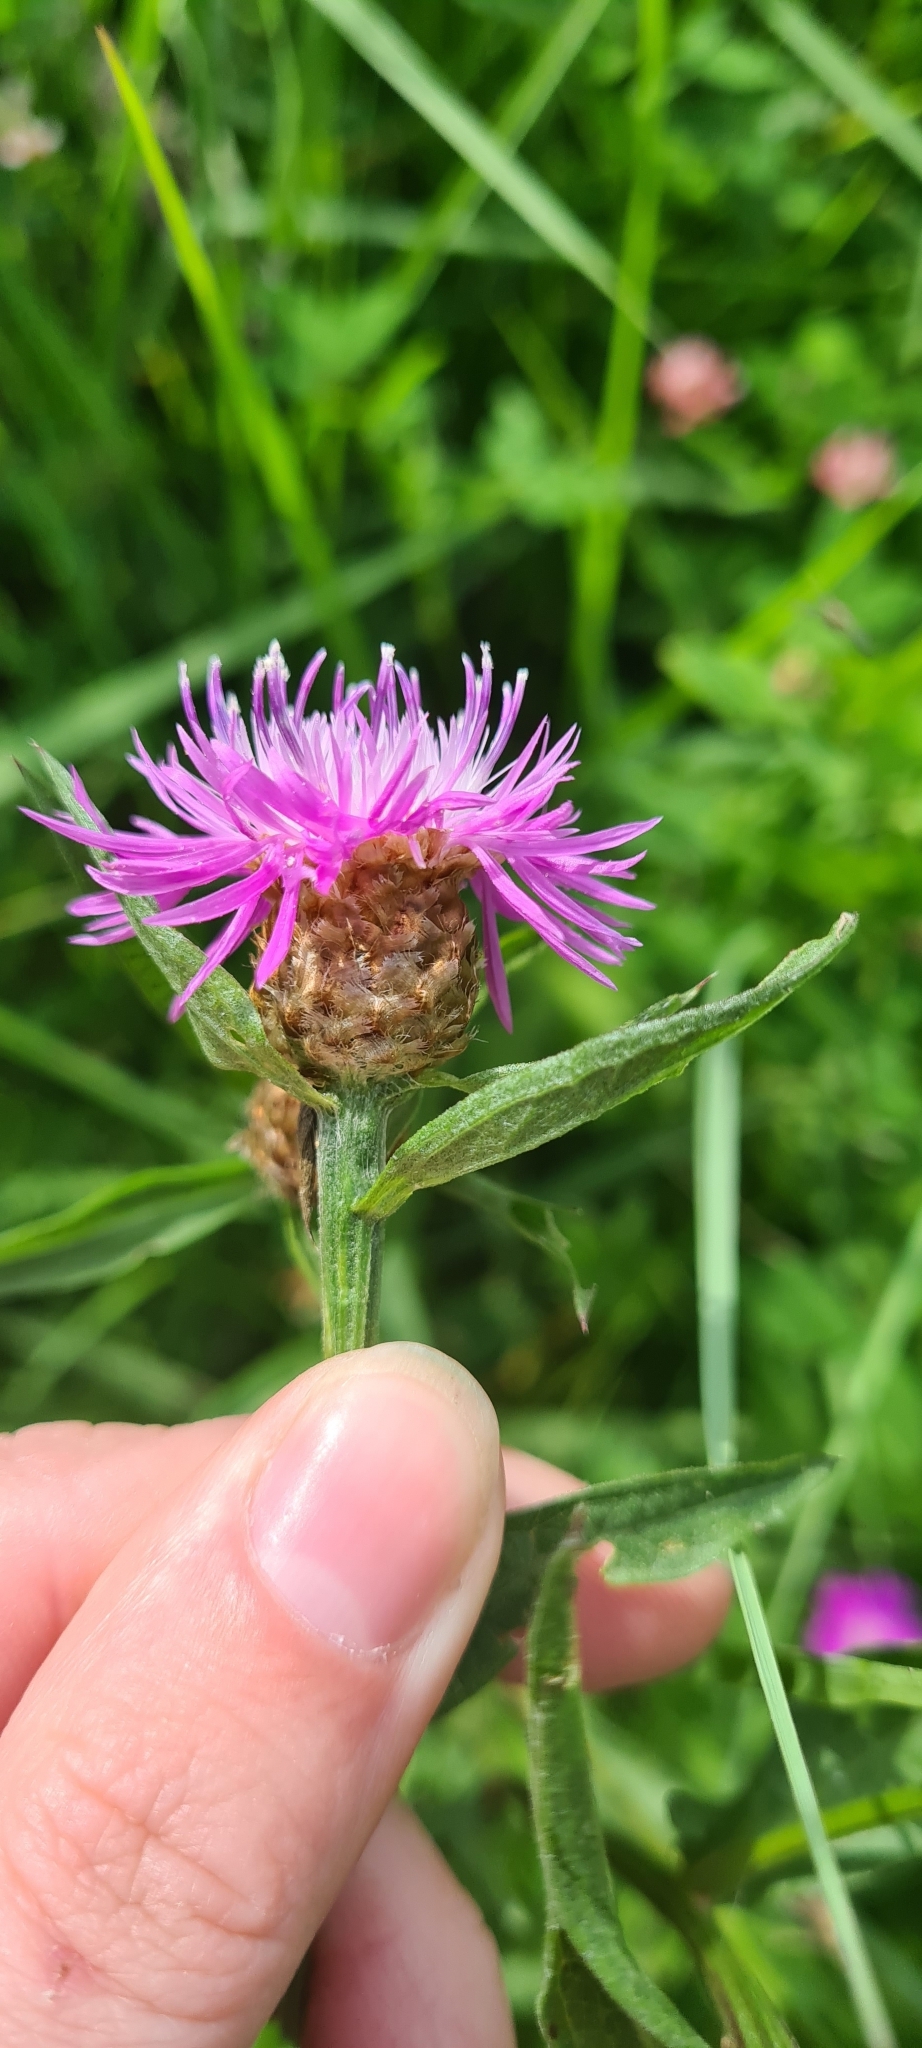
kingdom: Plantae
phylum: Tracheophyta
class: Magnoliopsida
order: Asterales
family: Asteraceae
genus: Centaurea
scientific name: Centaurea jacea
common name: Brown knapweed
